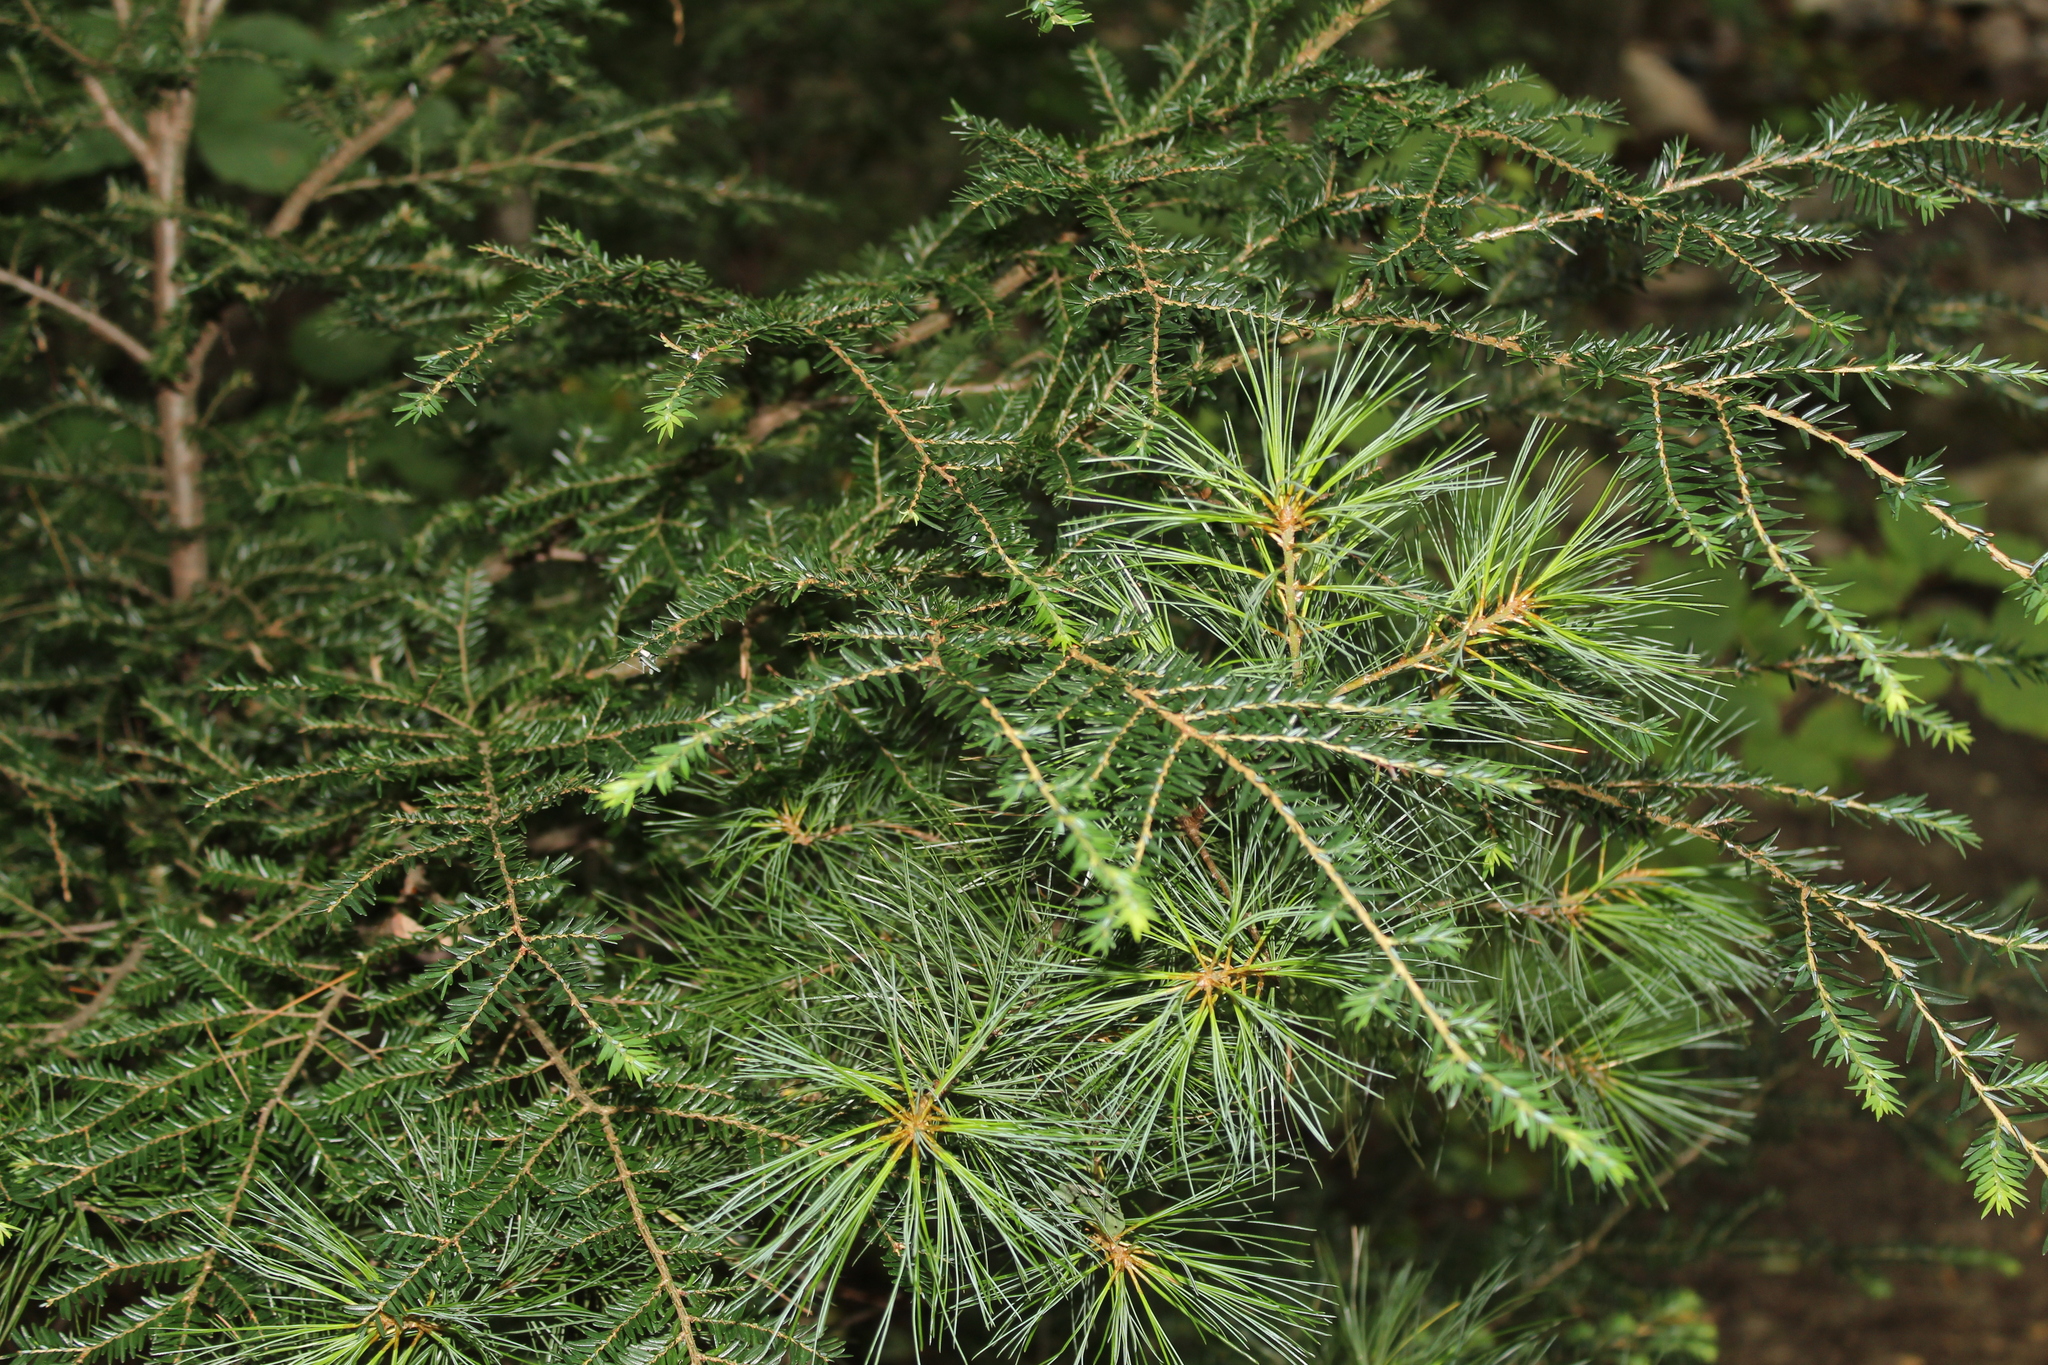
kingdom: Plantae
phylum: Tracheophyta
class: Pinopsida
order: Pinales
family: Pinaceae
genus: Tsuga
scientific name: Tsuga canadensis
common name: Eastern hemlock
